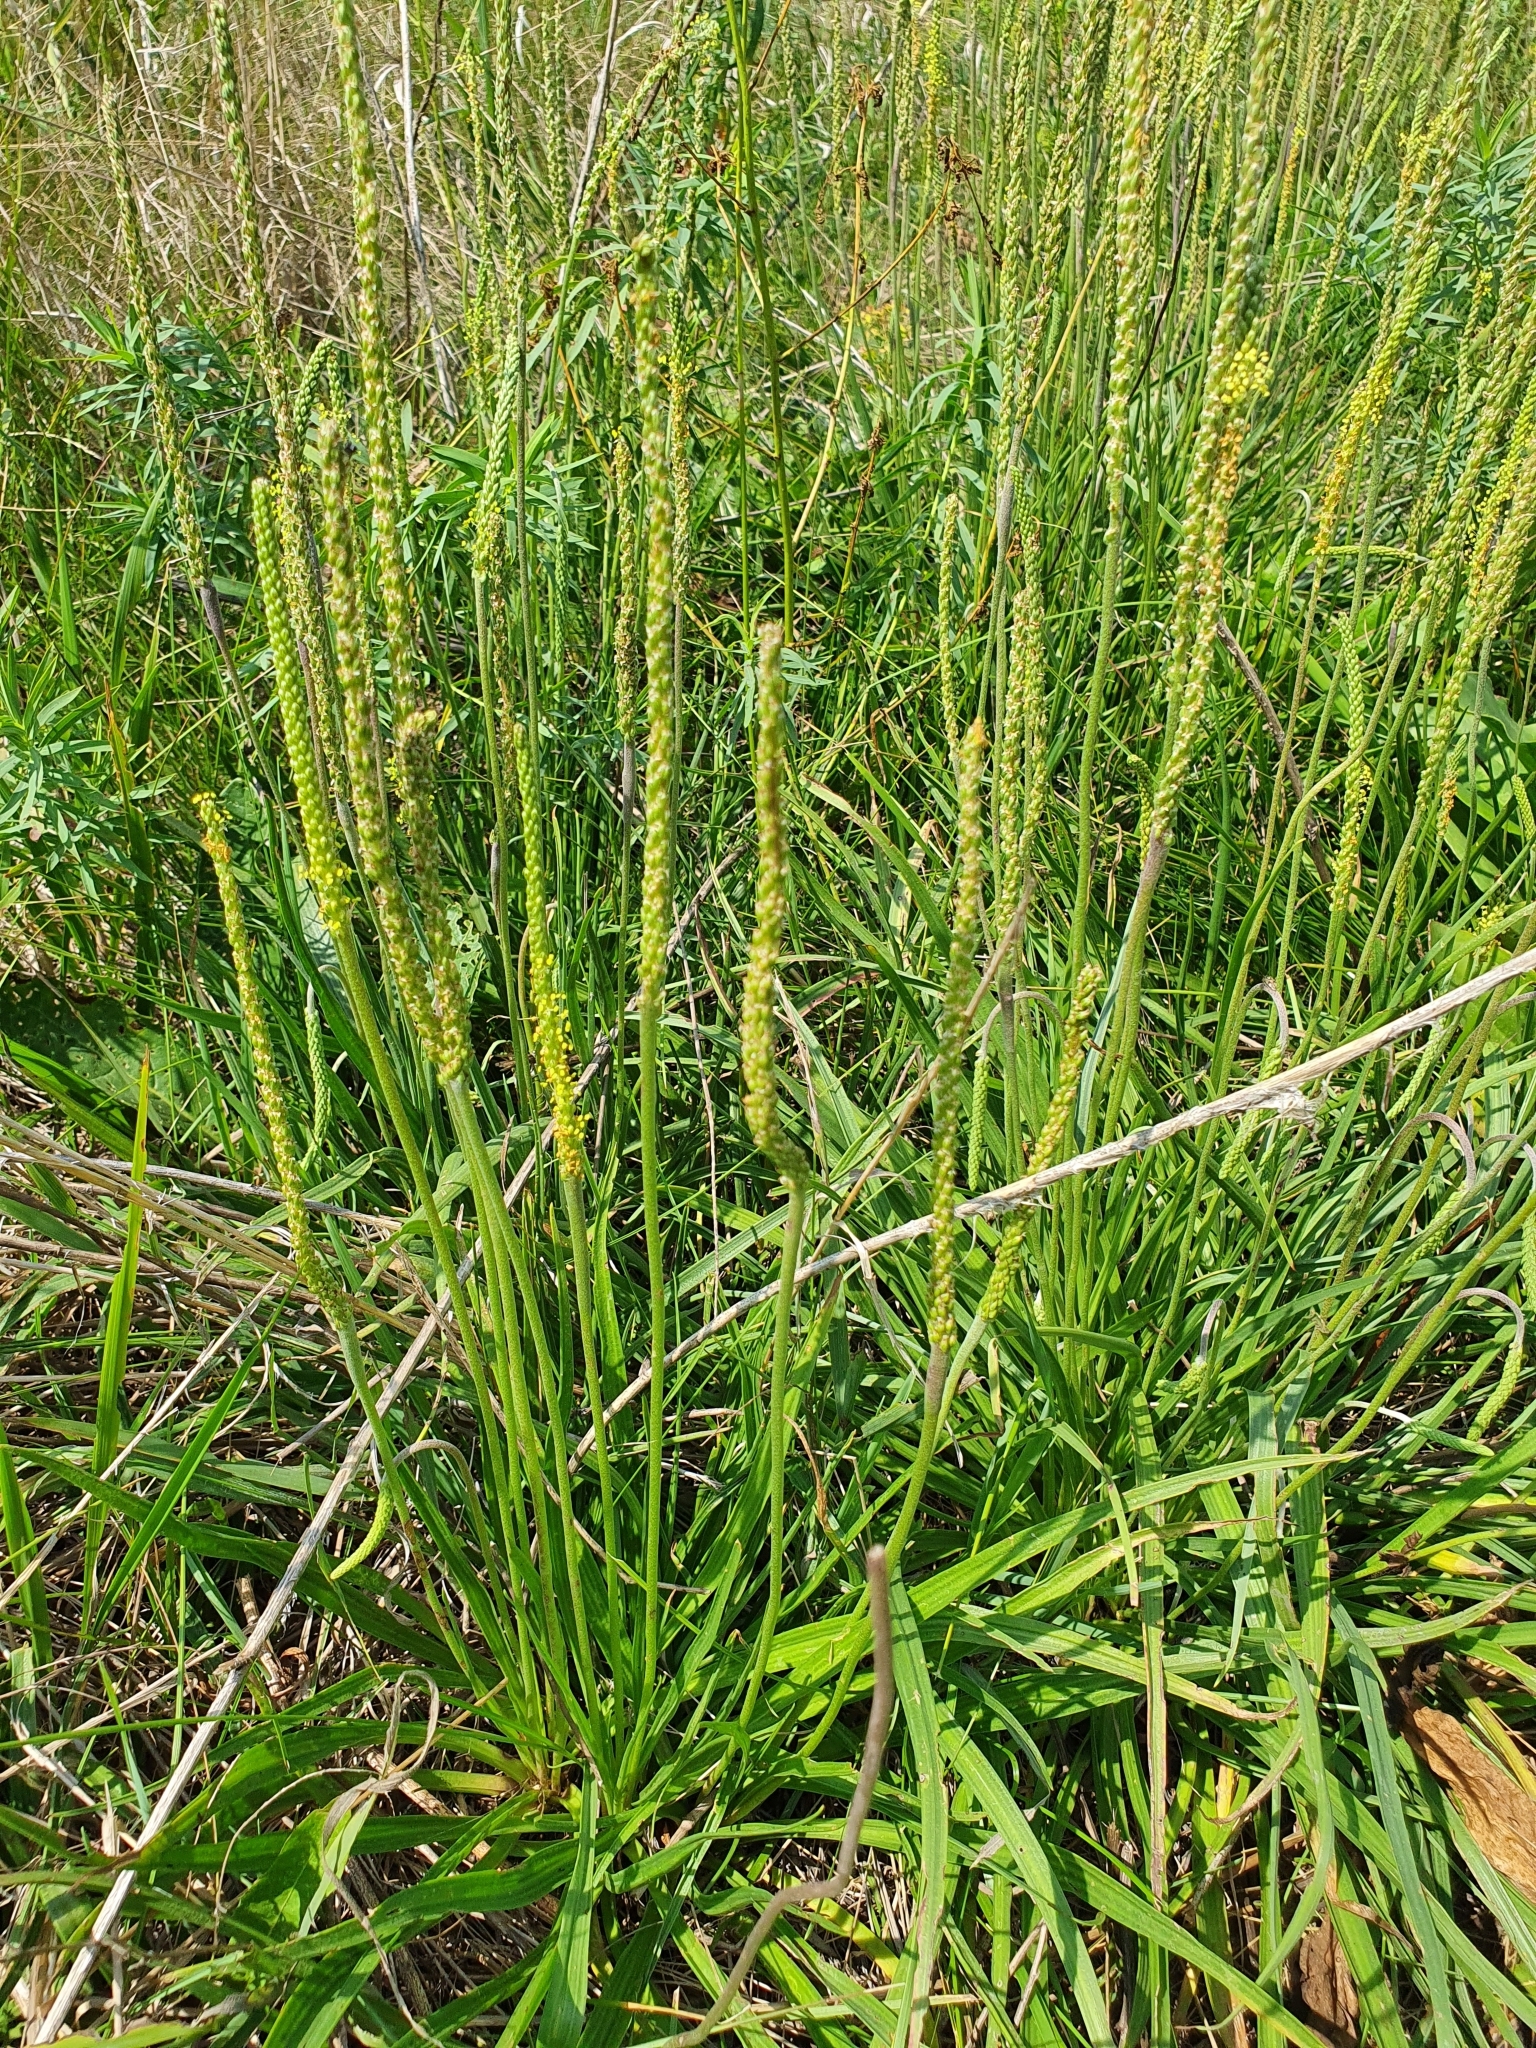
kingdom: Plantae
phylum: Tracheophyta
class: Magnoliopsida
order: Lamiales
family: Plantaginaceae
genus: Plantago
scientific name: Plantago salsa
